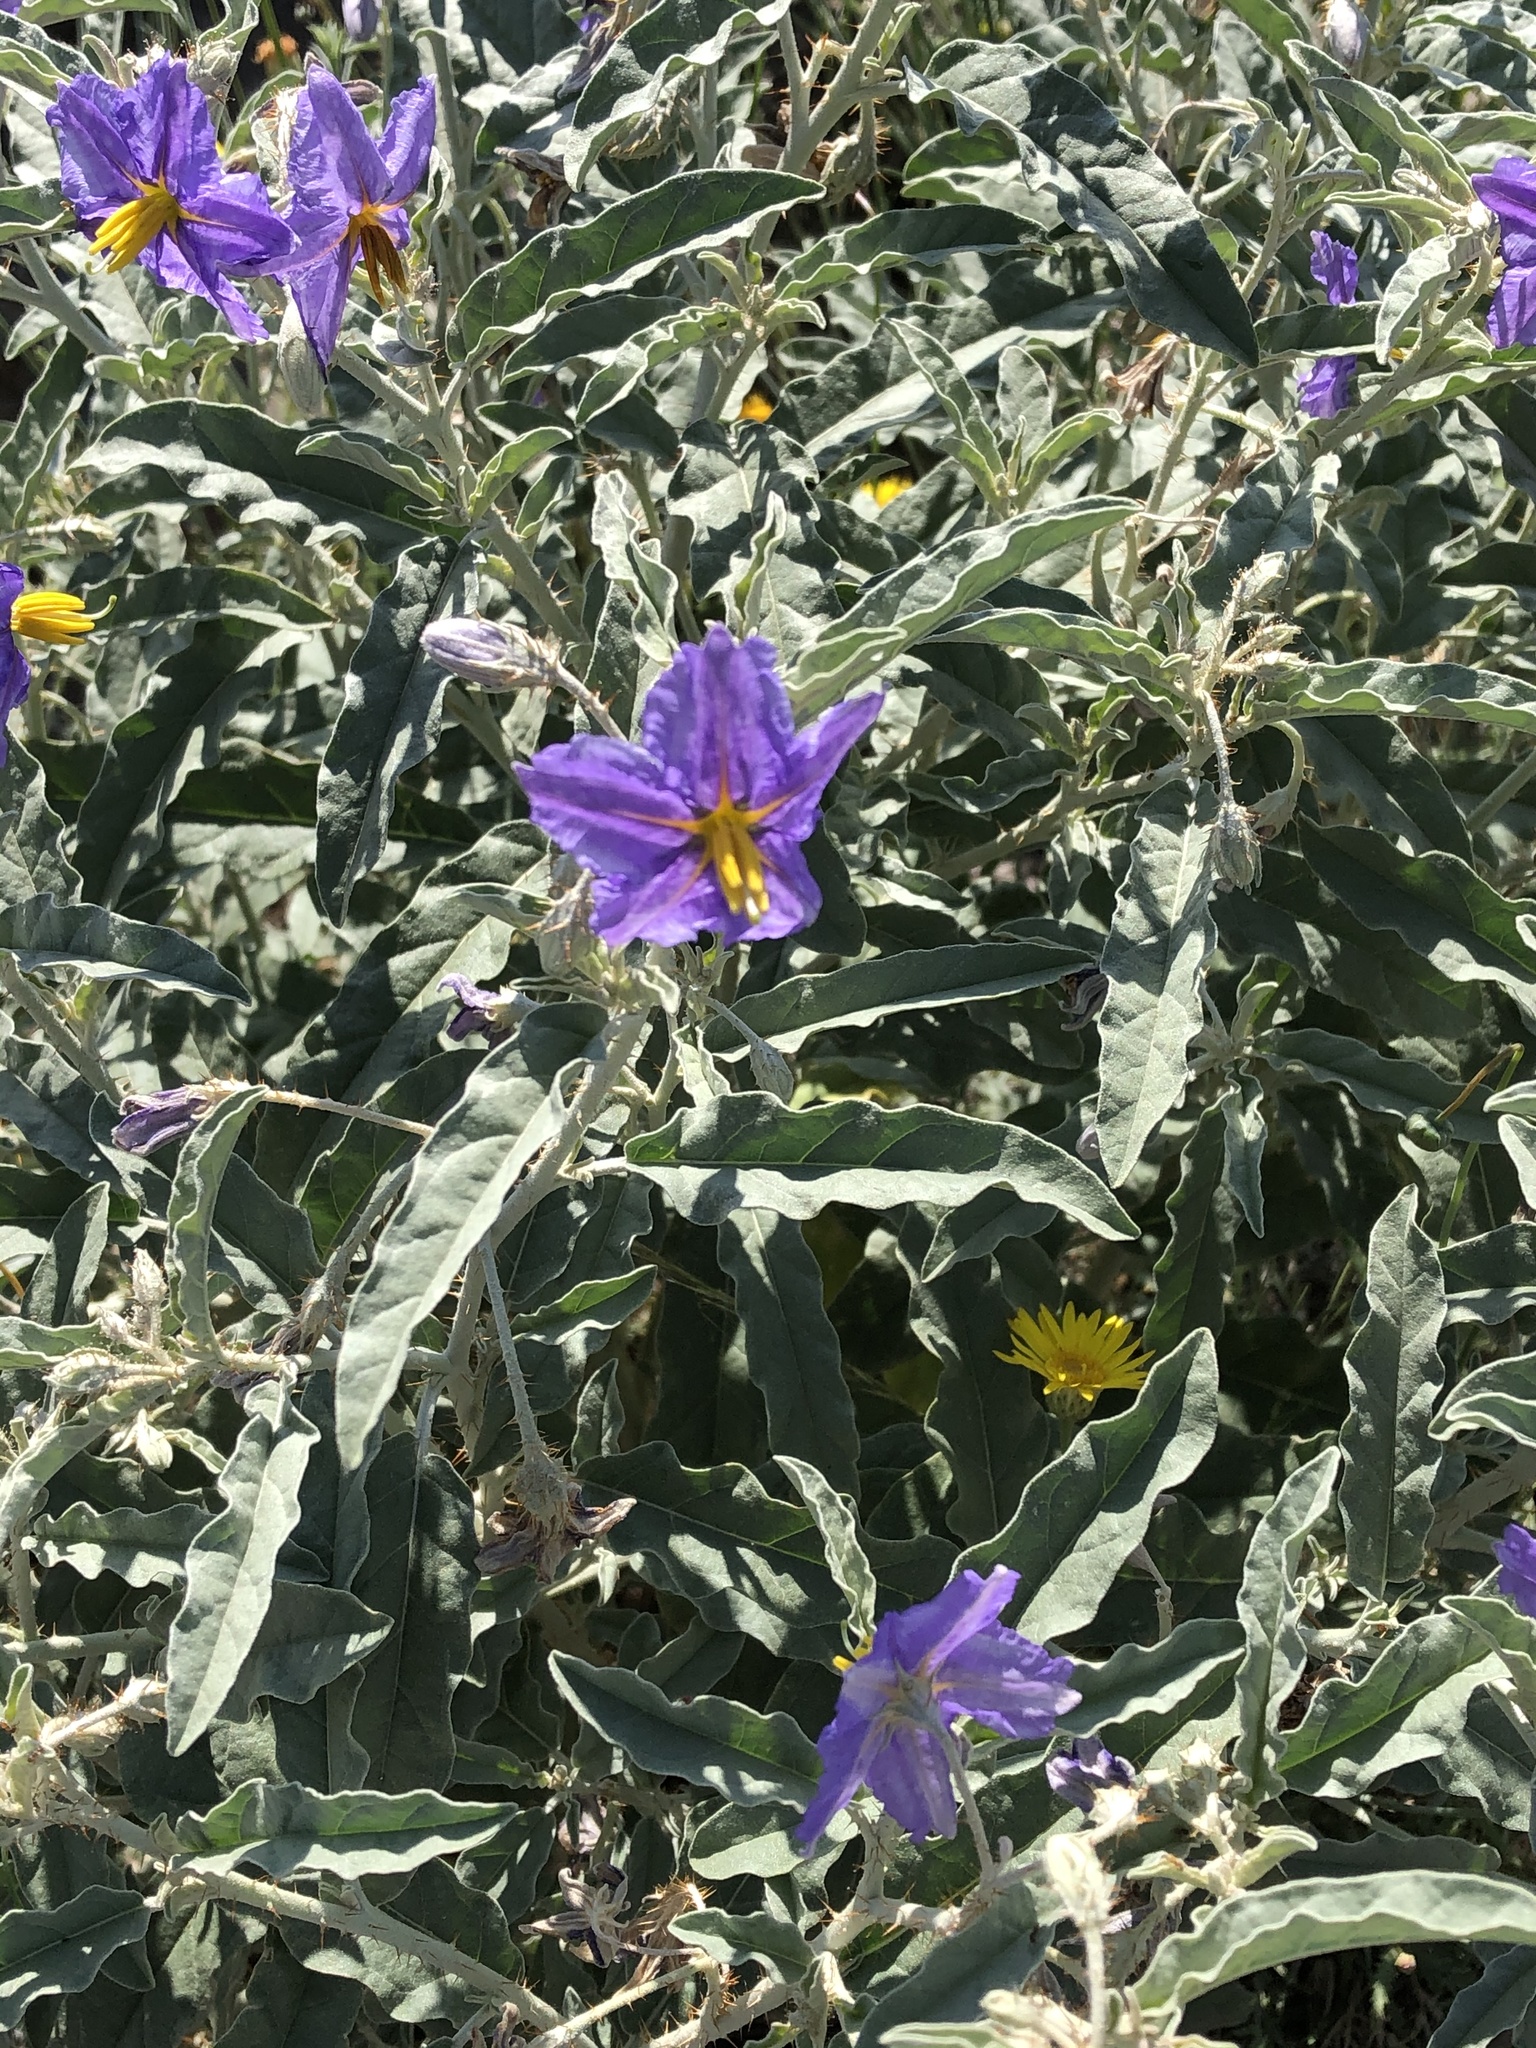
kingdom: Plantae
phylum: Tracheophyta
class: Magnoliopsida
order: Solanales
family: Solanaceae
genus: Solanum
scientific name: Solanum elaeagnifolium
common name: Silverleaf nightshade
